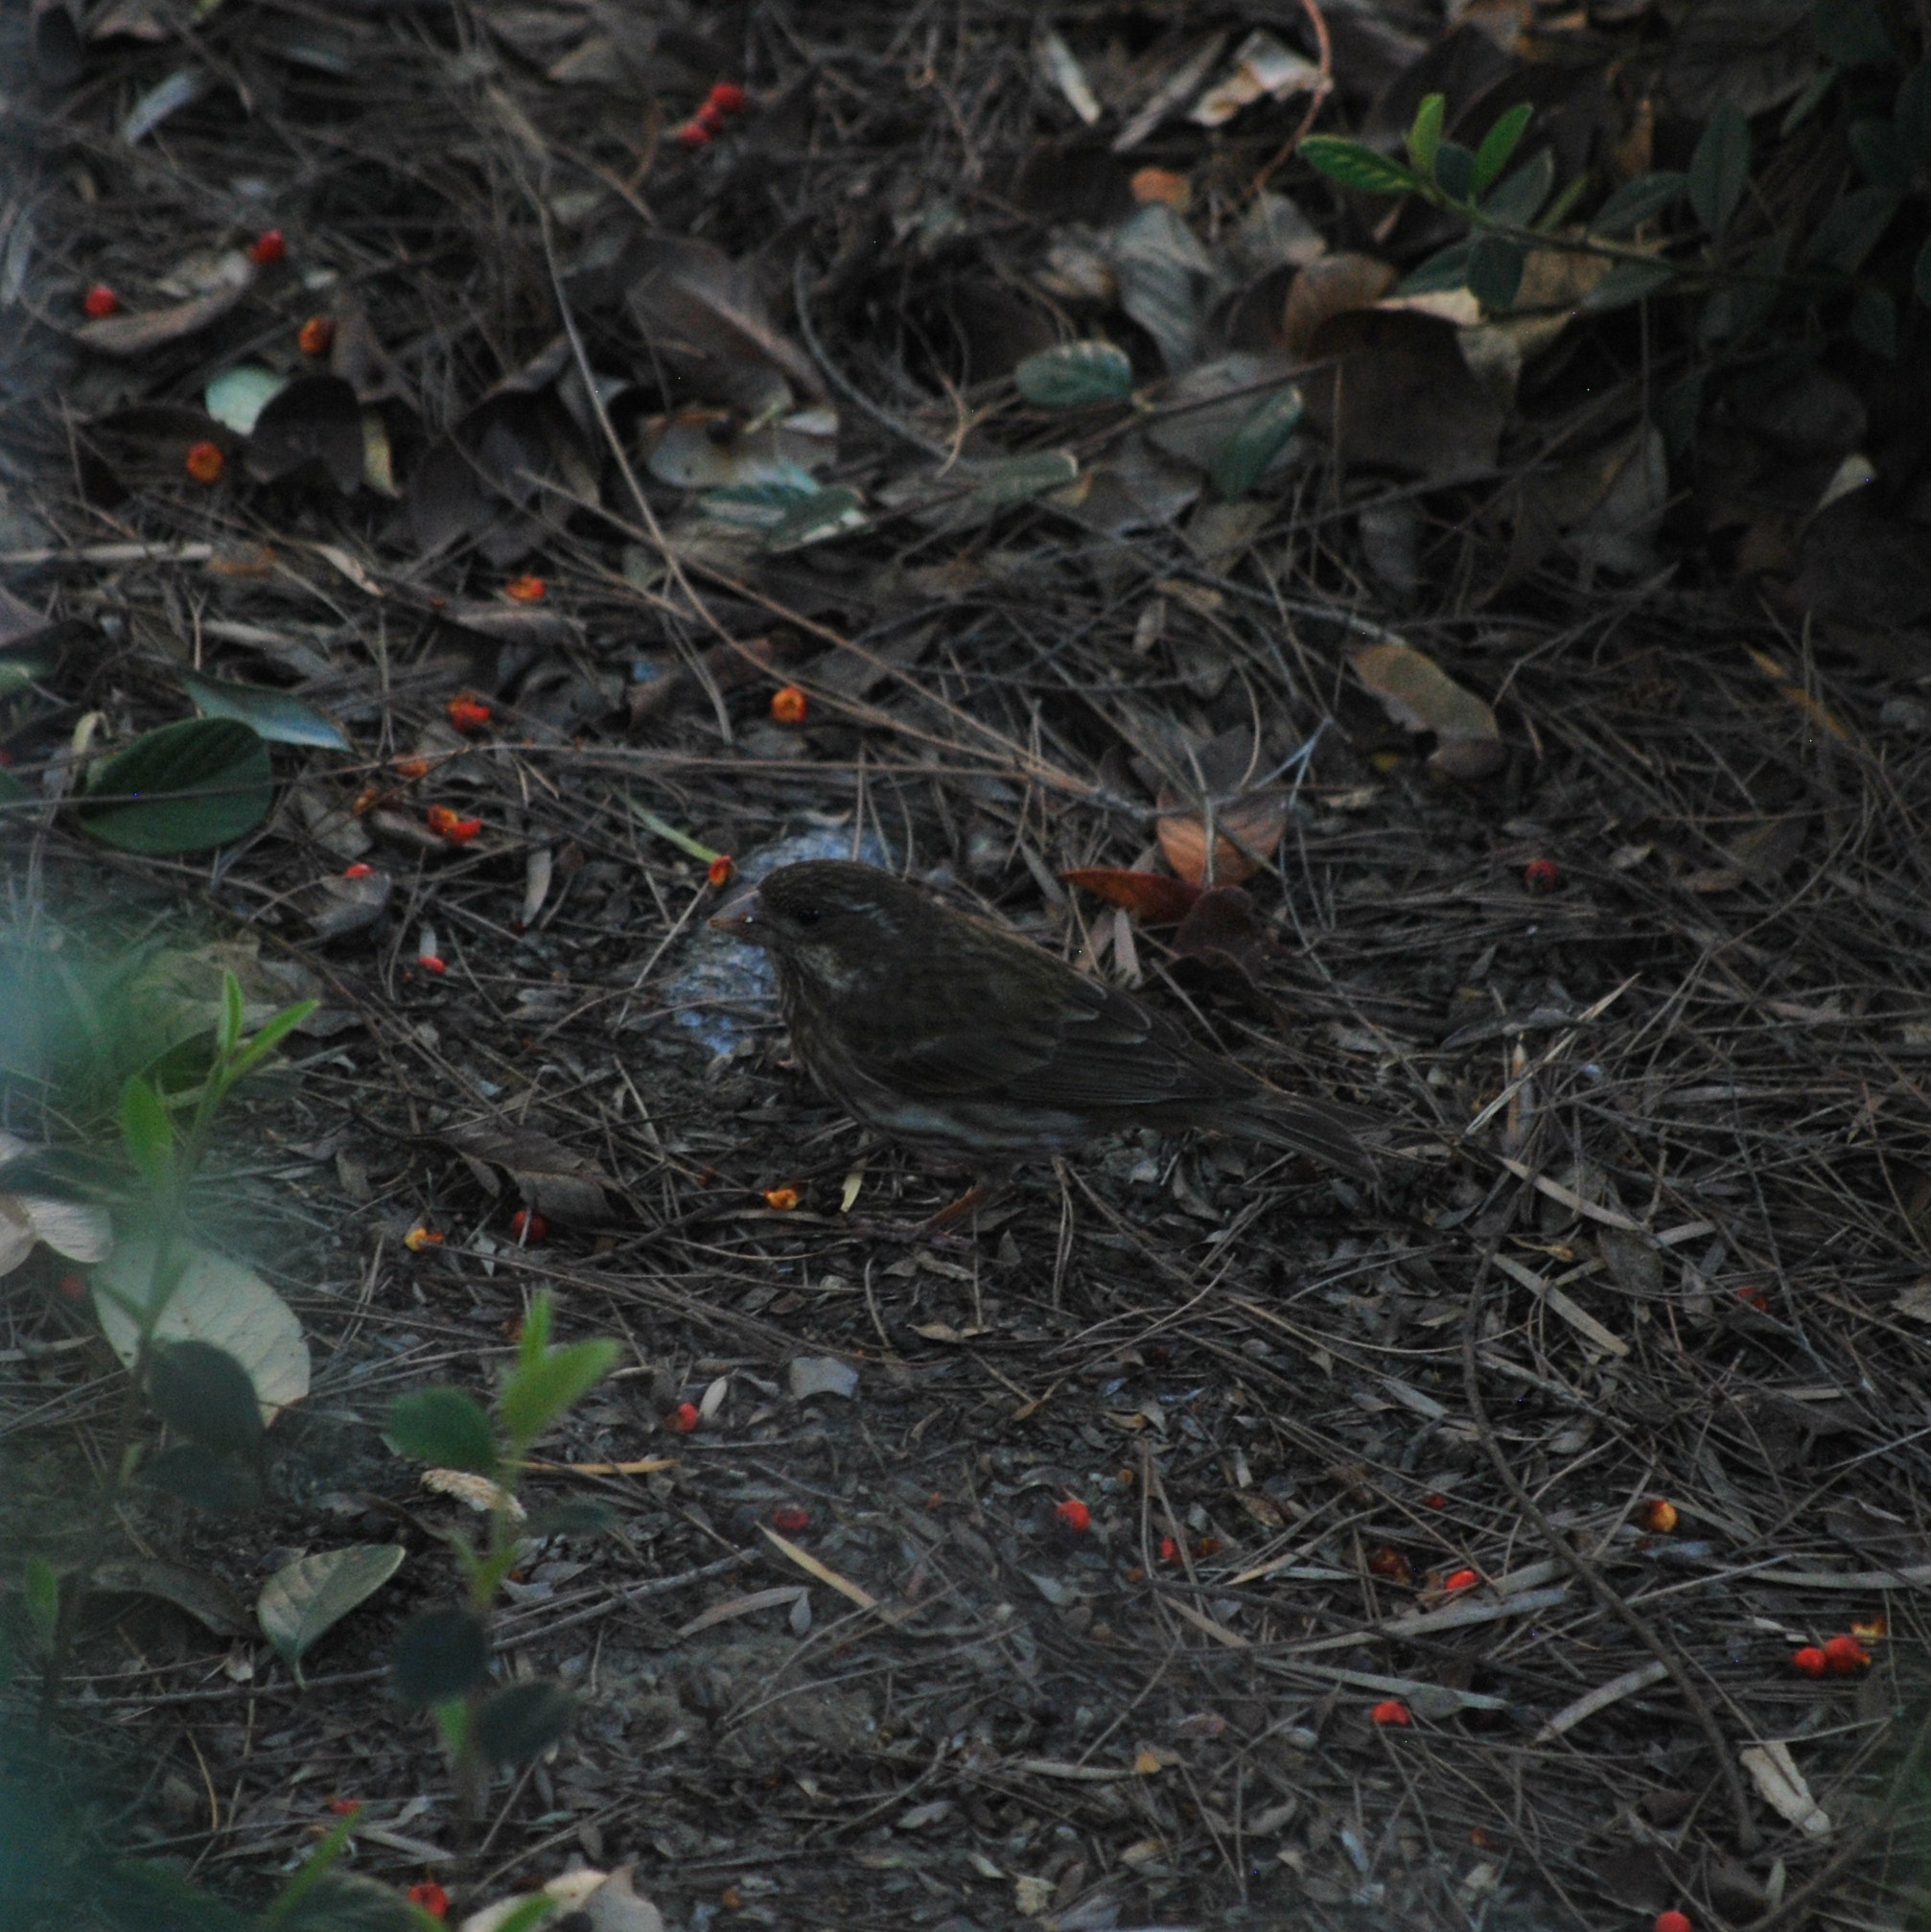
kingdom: Animalia
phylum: Chordata
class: Aves
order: Passeriformes
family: Fringillidae
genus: Haemorhous
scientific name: Haemorhous purpureus
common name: Purple finch
